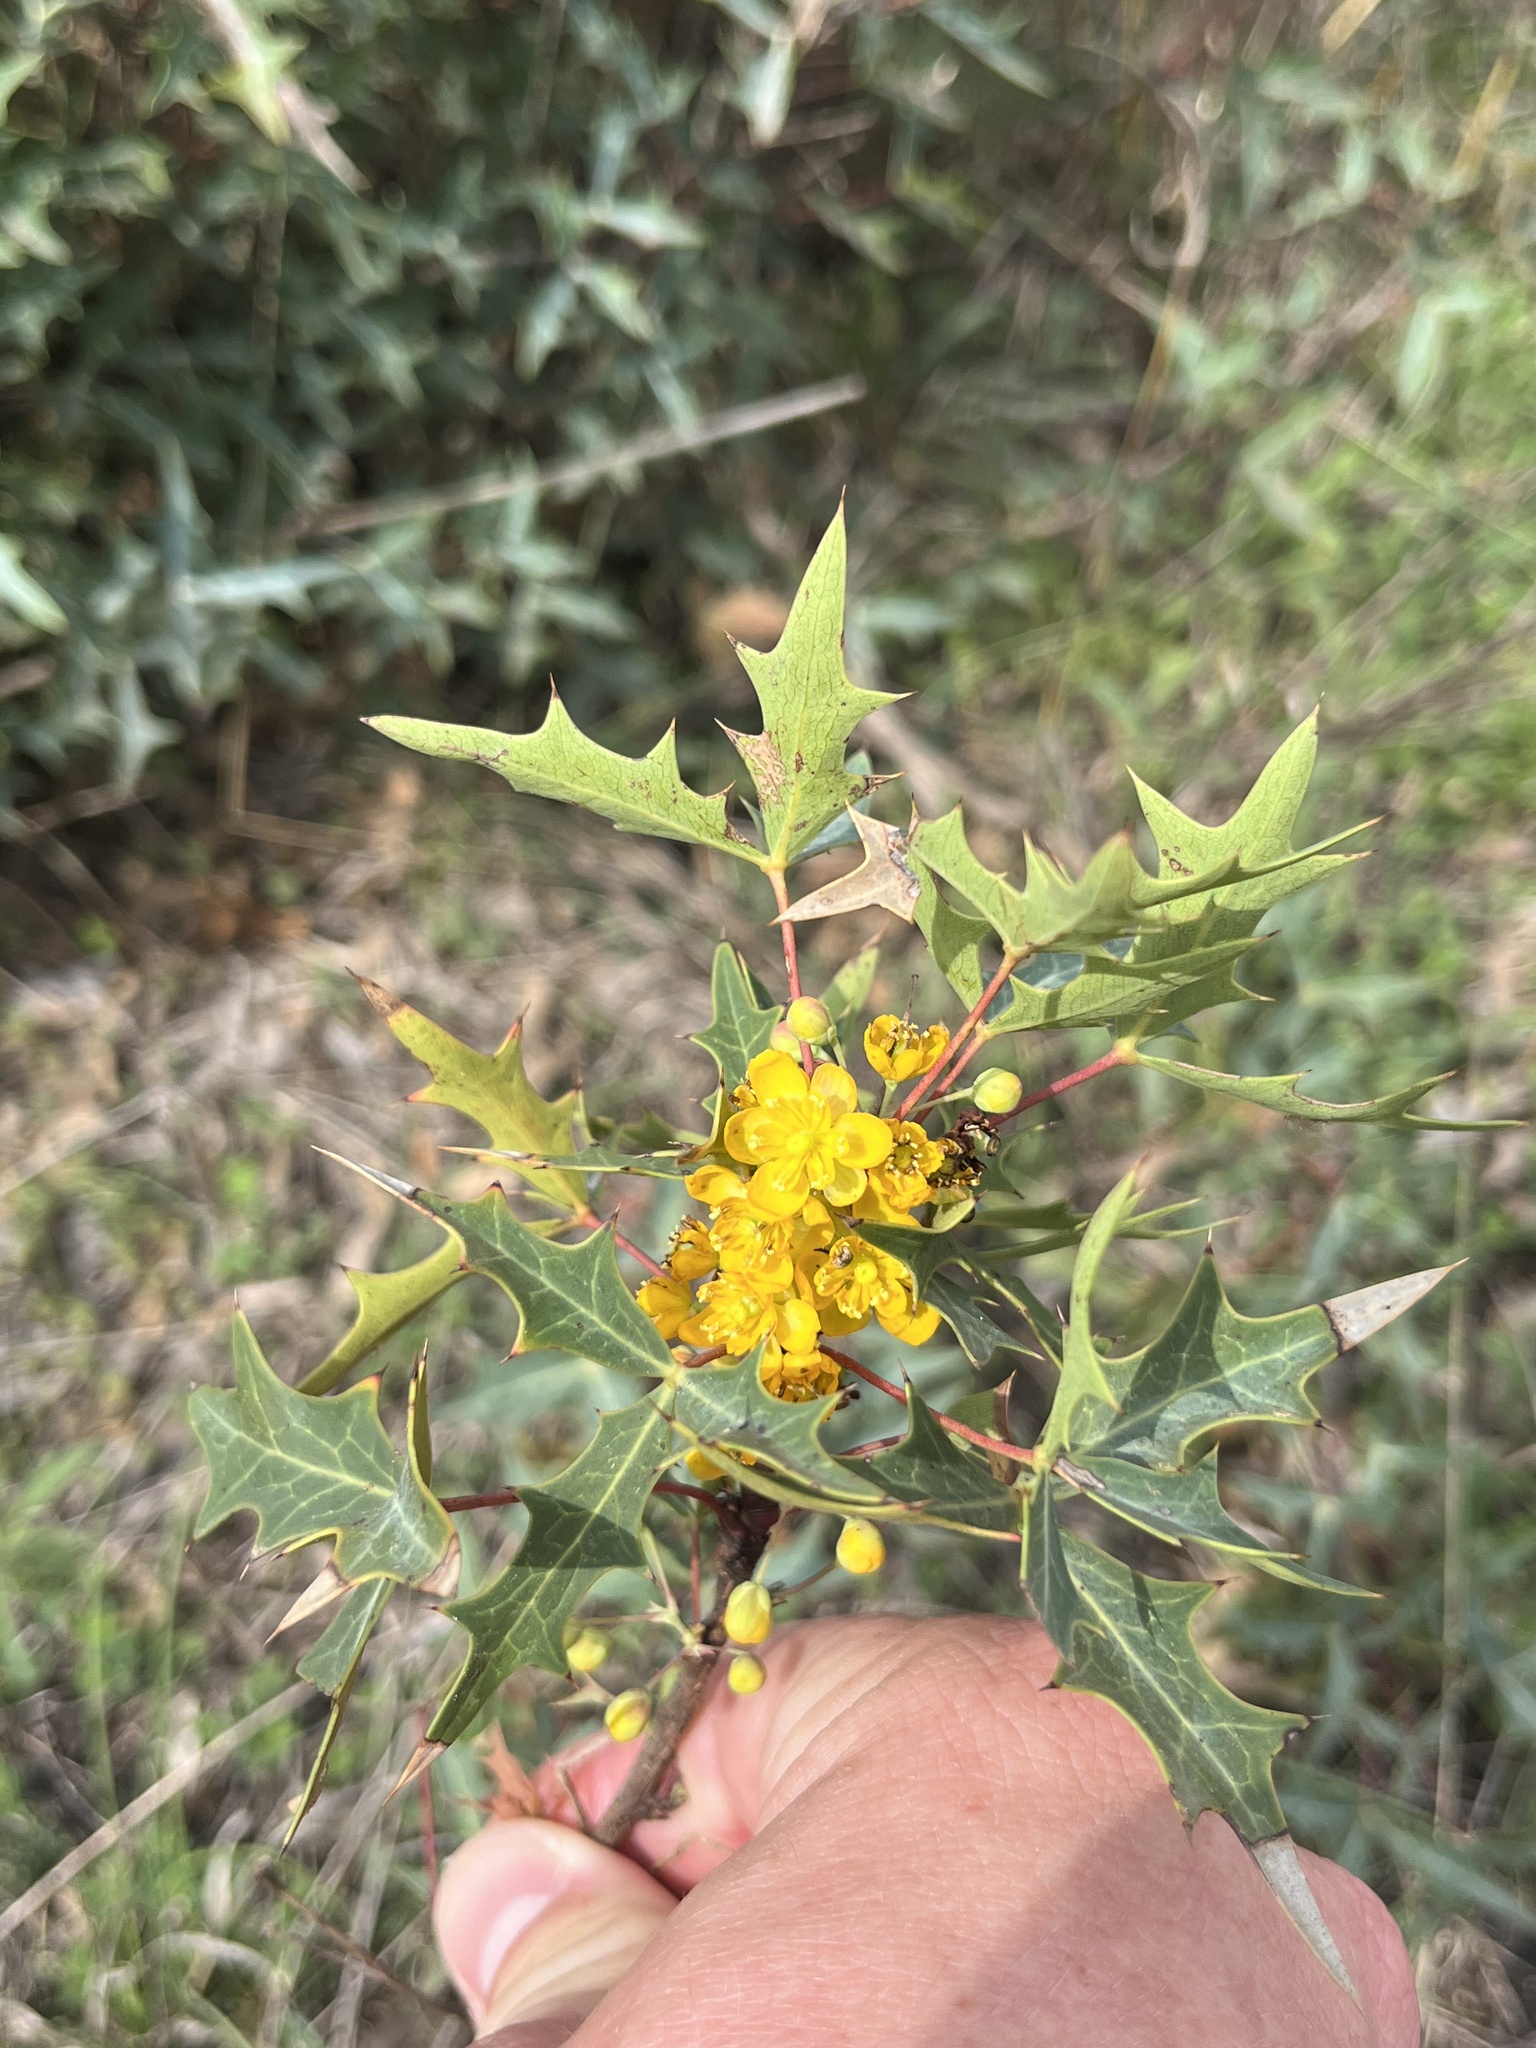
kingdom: Plantae
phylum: Tracheophyta
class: Magnoliopsida
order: Ranunculales
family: Berberidaceae
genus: Alloberberis
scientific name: Alloberberis trifoliolata
